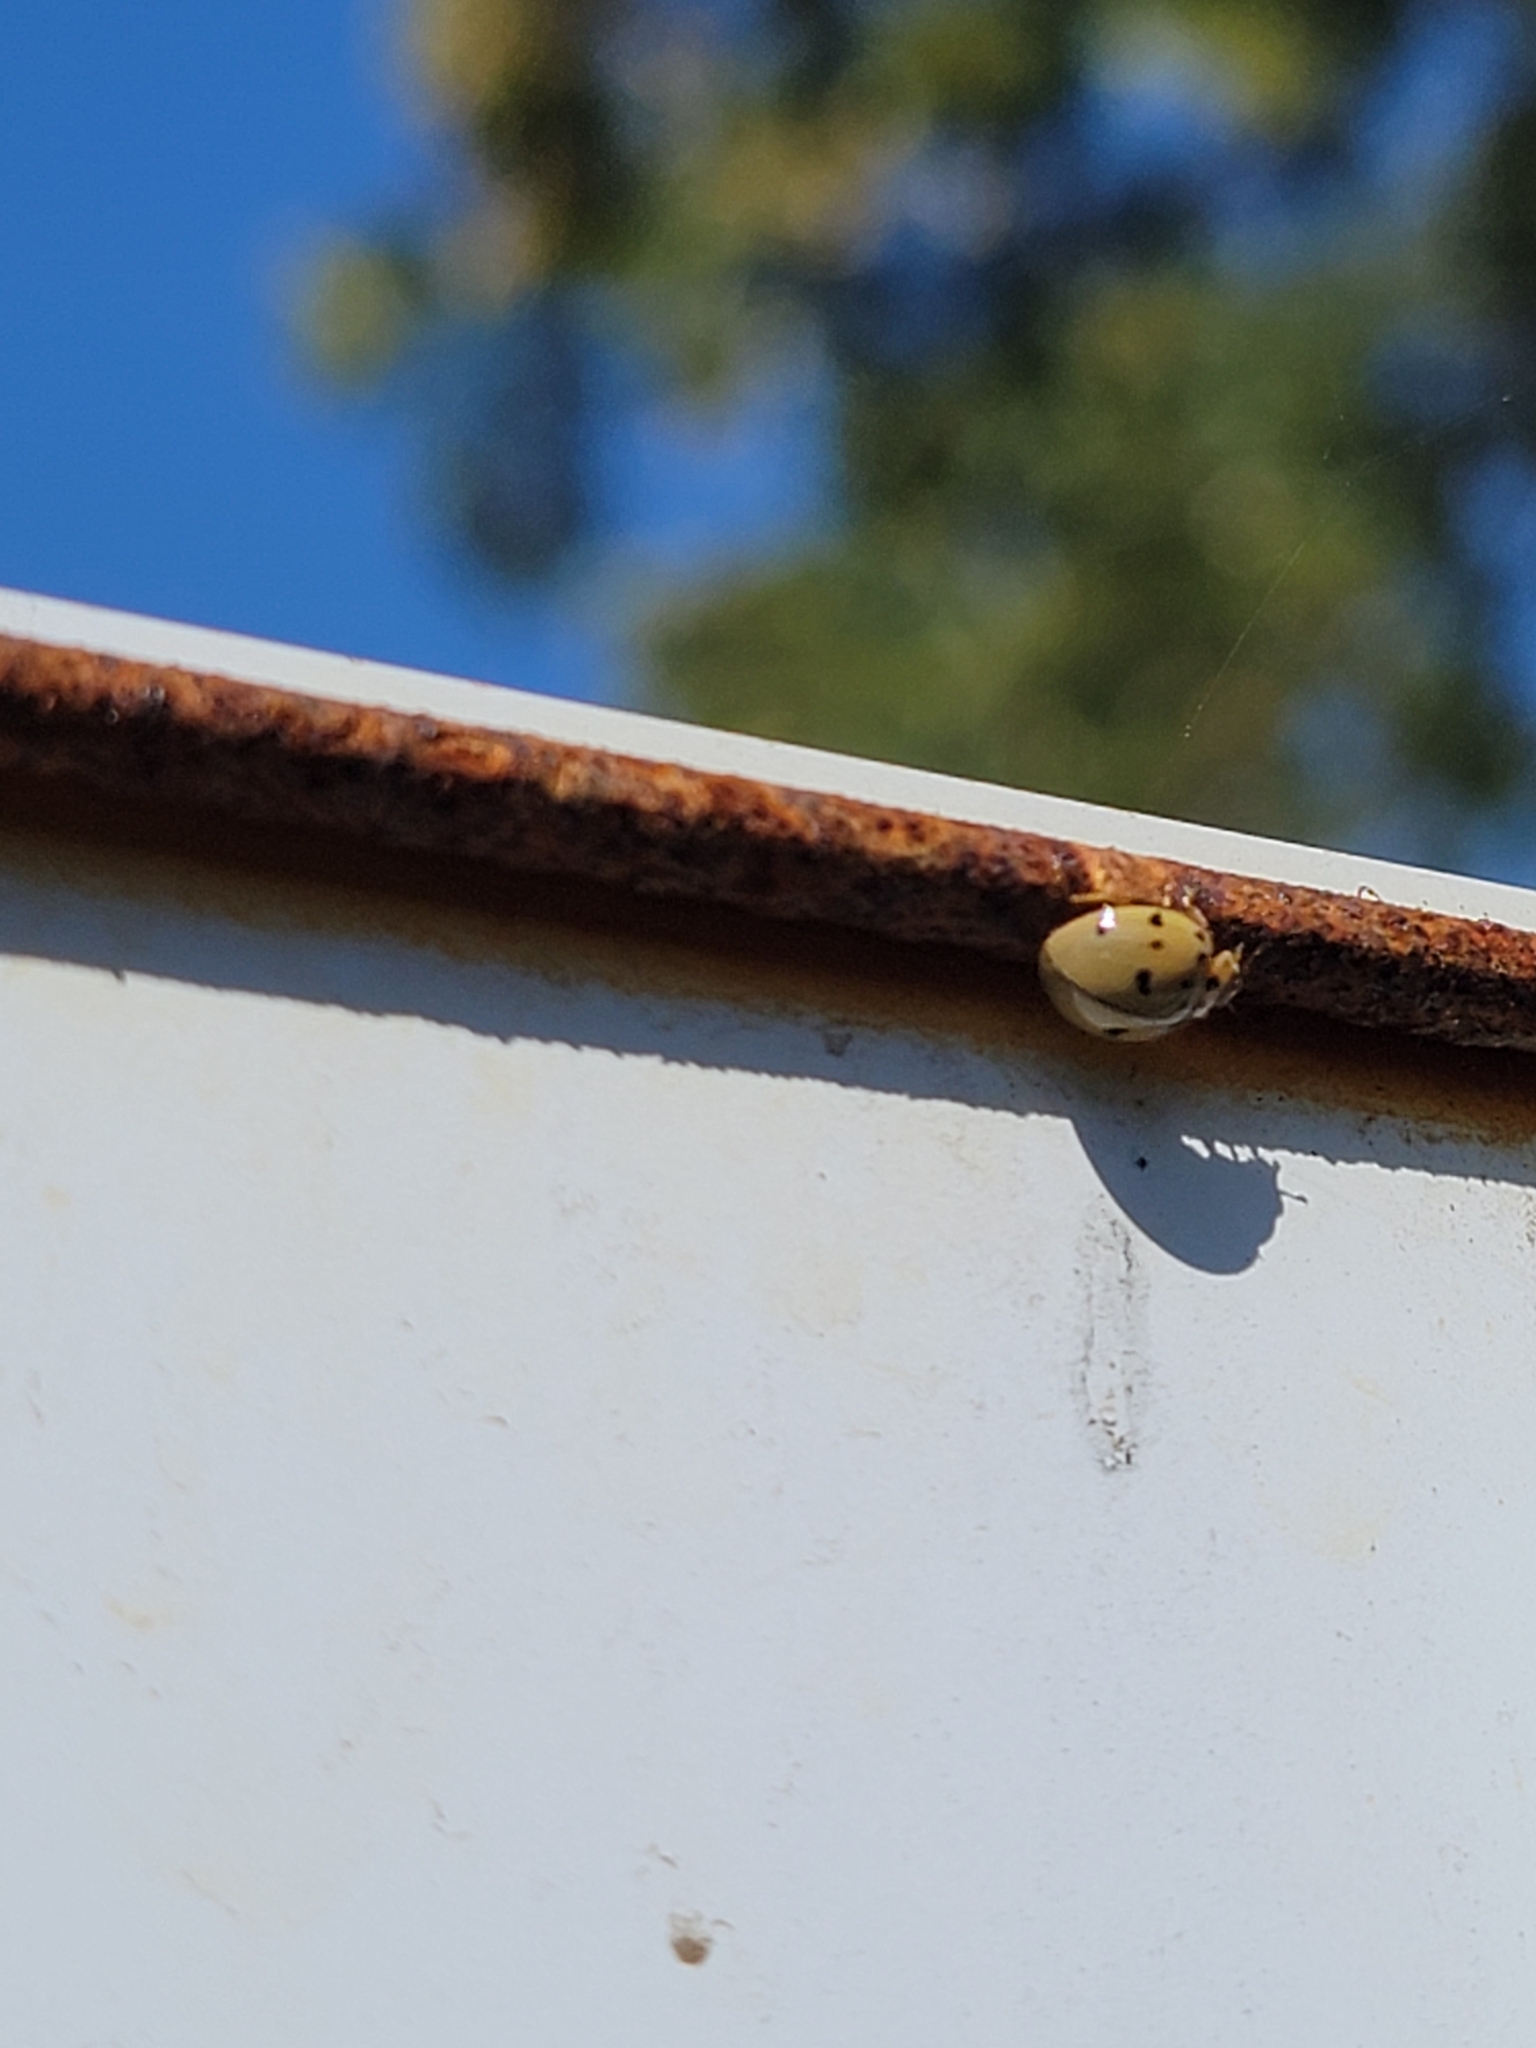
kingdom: Animalia
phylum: Arthropoda
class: Insecta
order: Coleoptera
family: Coccinellidae
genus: Olla
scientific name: Olla v-nigrum
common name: Ashy gray lady beetle
